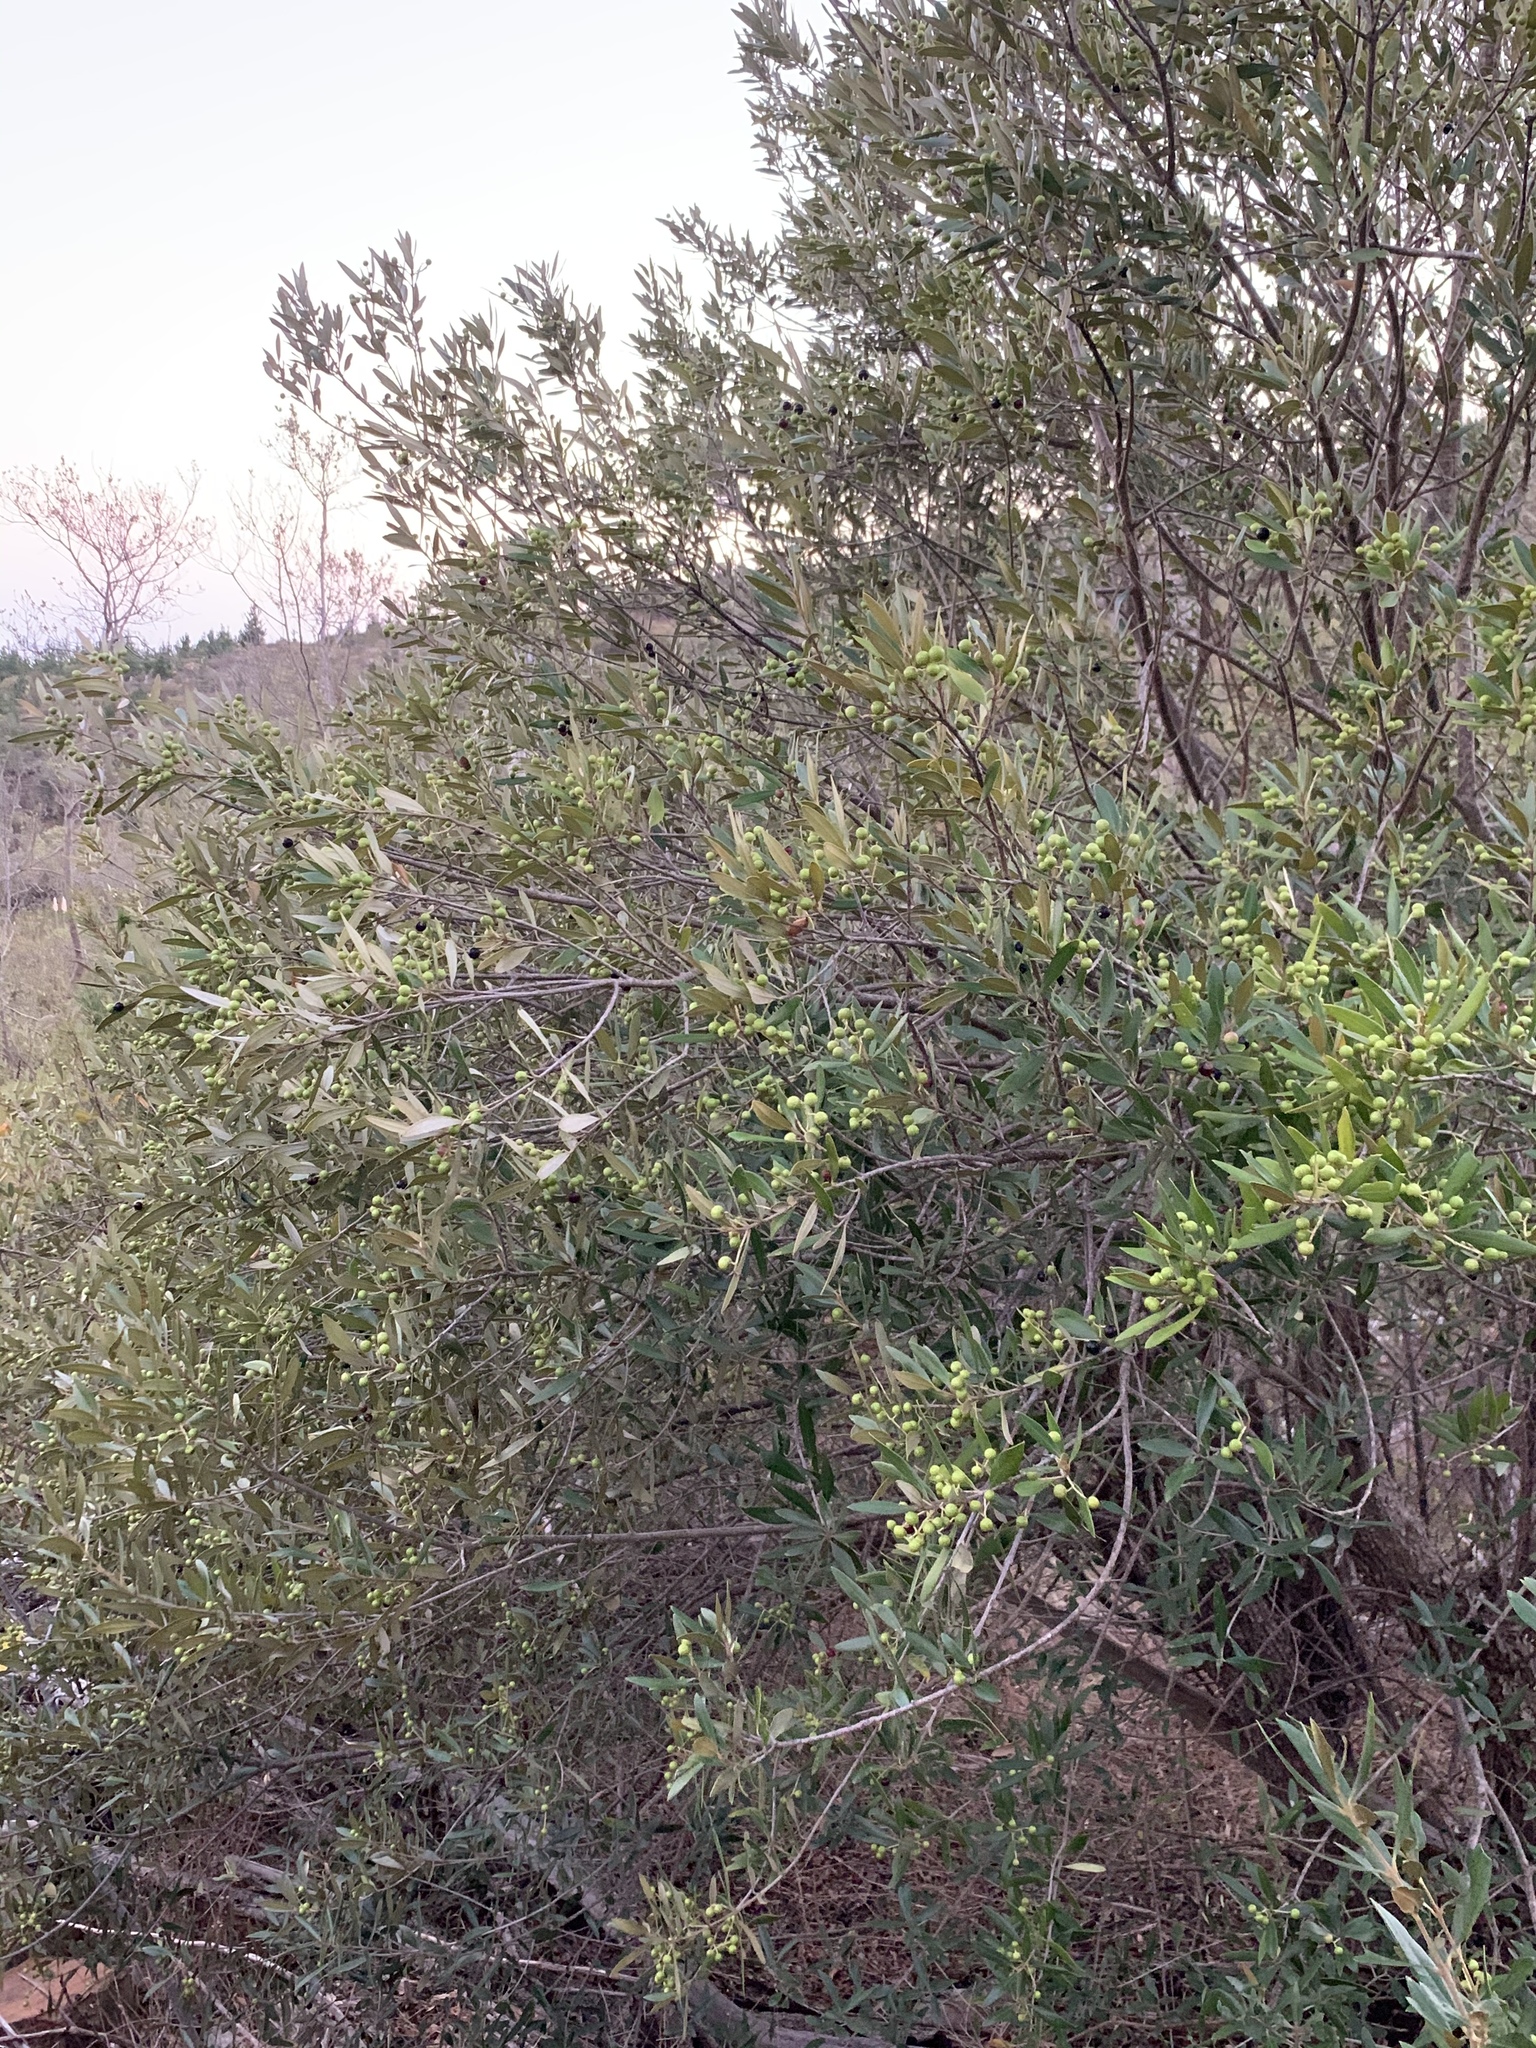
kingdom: Plantae
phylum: Tracheophyta
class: Magnoliopsida
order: Lamiales
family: Oleaceae
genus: Olea
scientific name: Olea europaea
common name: Olive
